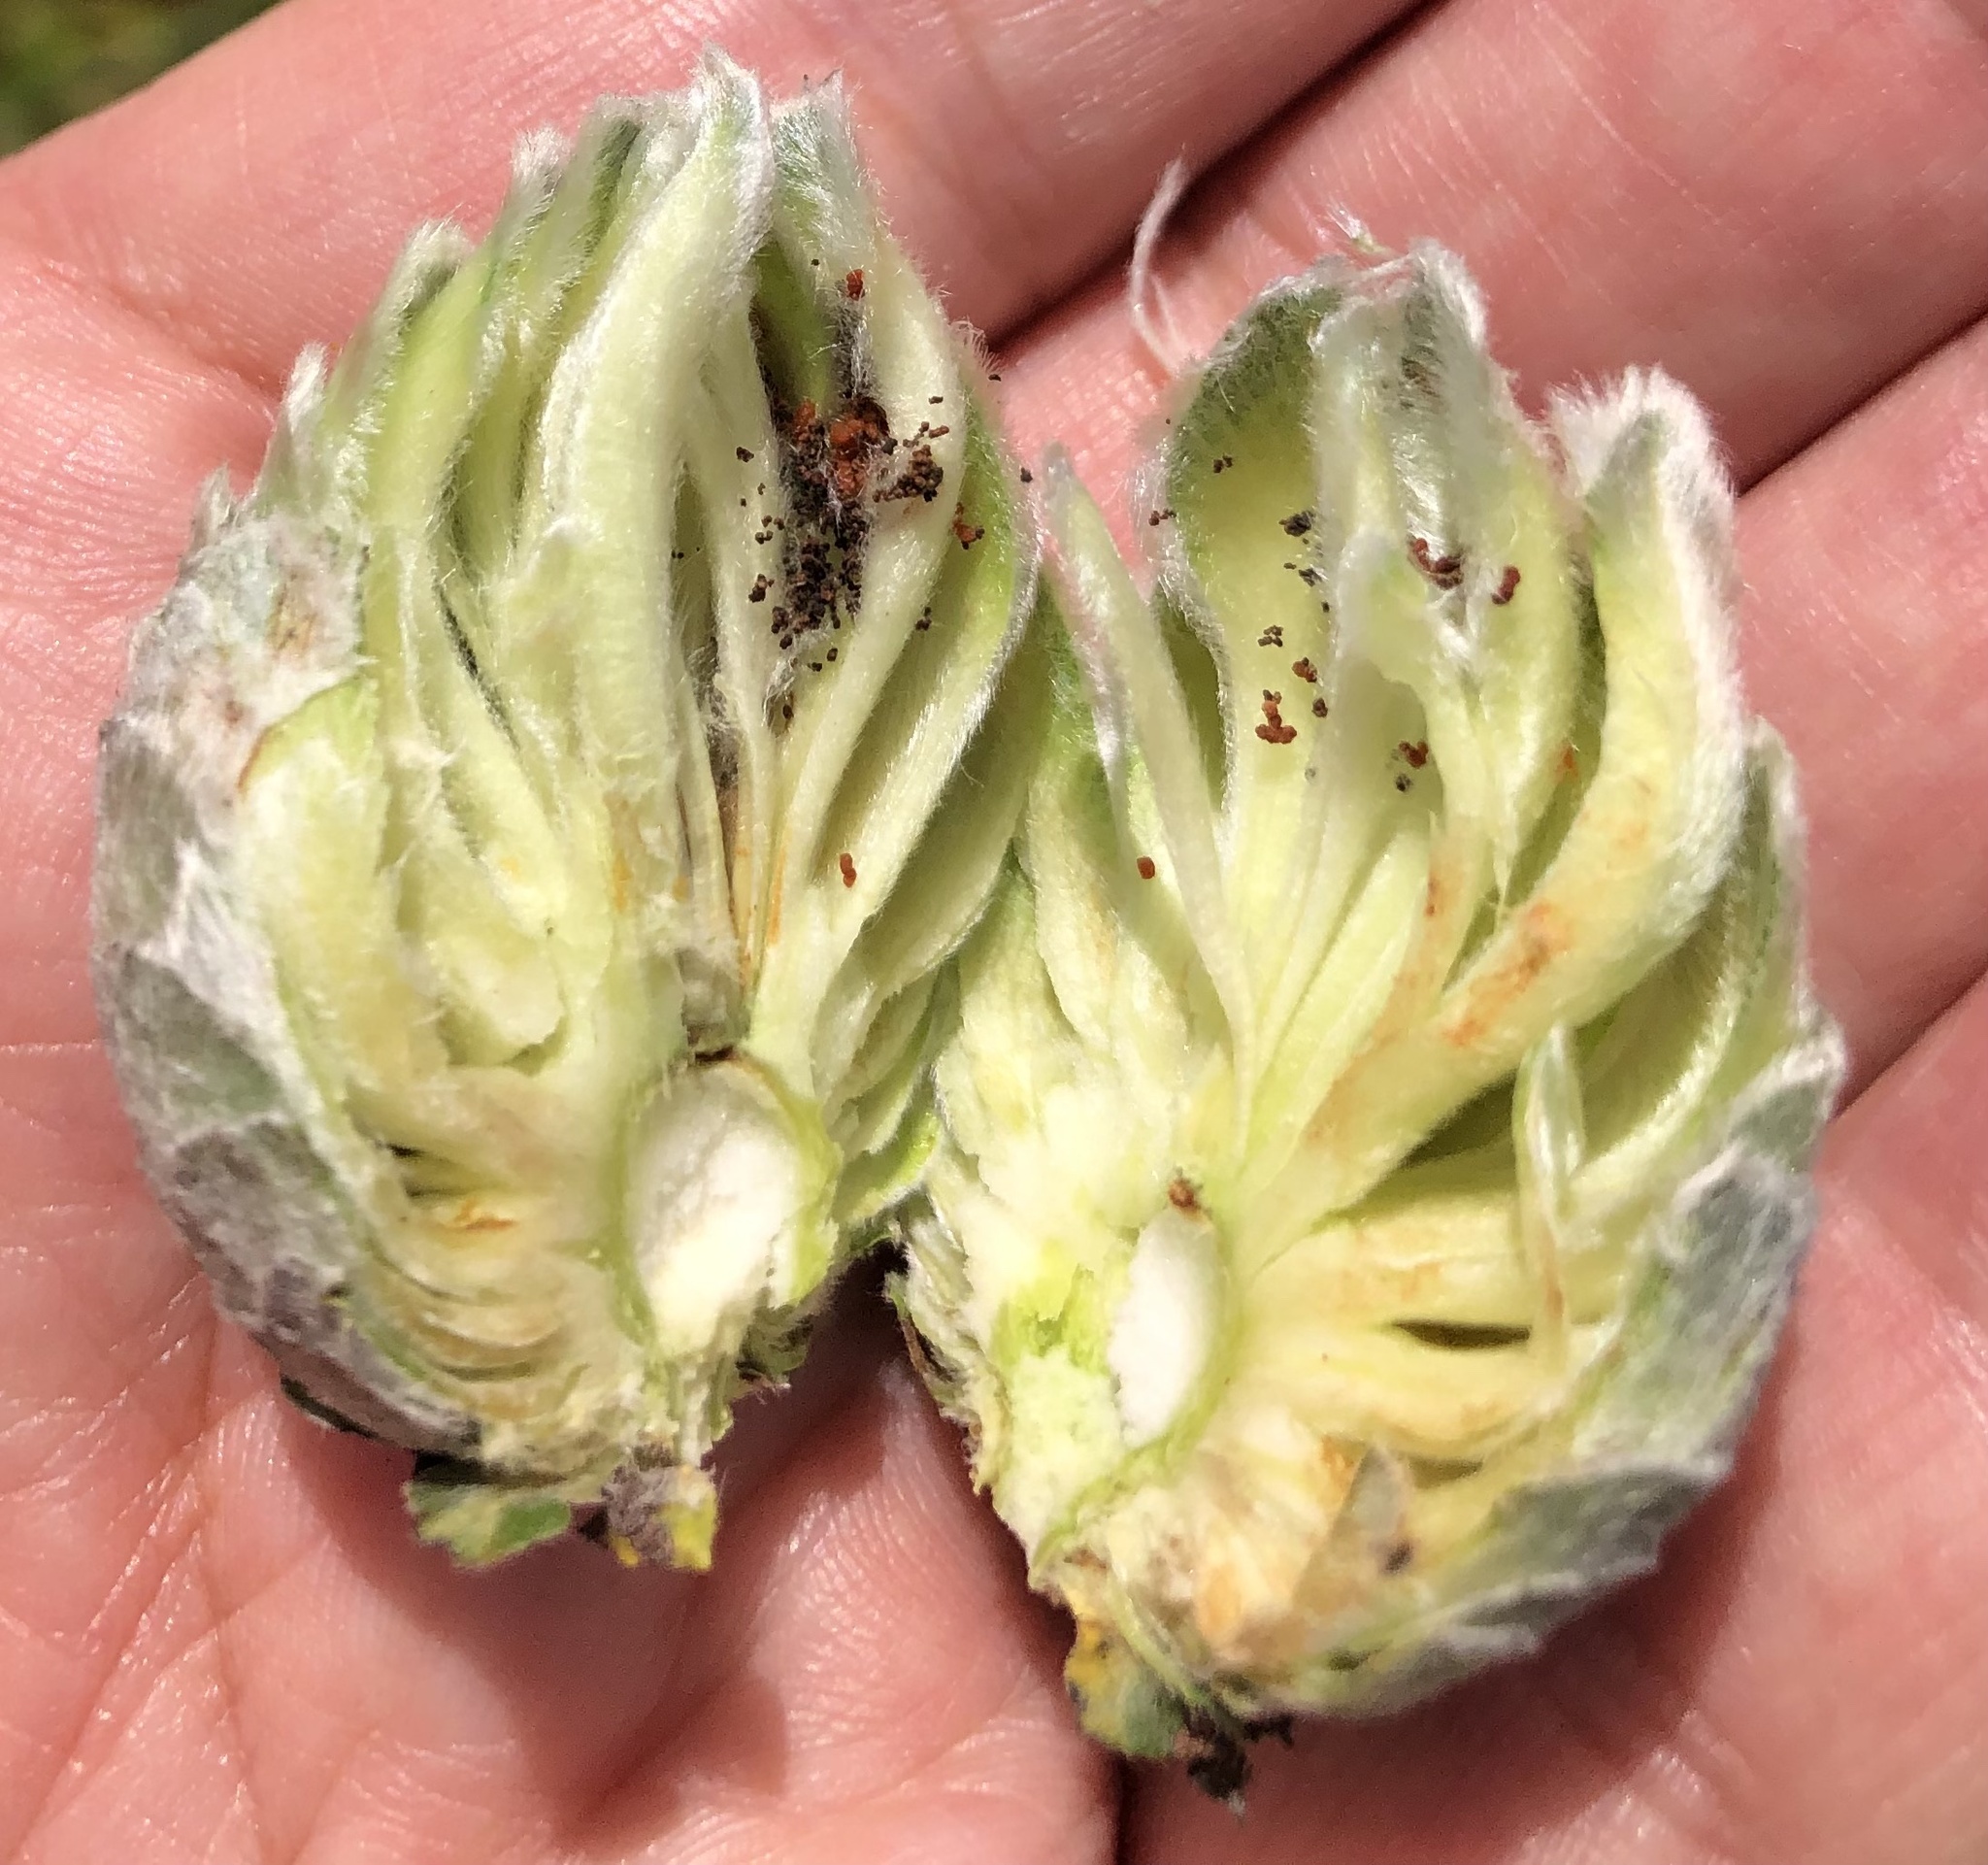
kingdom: Animalia
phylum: Arthropoda
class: Insecta
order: Diptera
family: Cecidomyiidae
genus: Rabdophaga
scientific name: Rabdophaga strobiloides
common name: Willow pinecone gall midge
